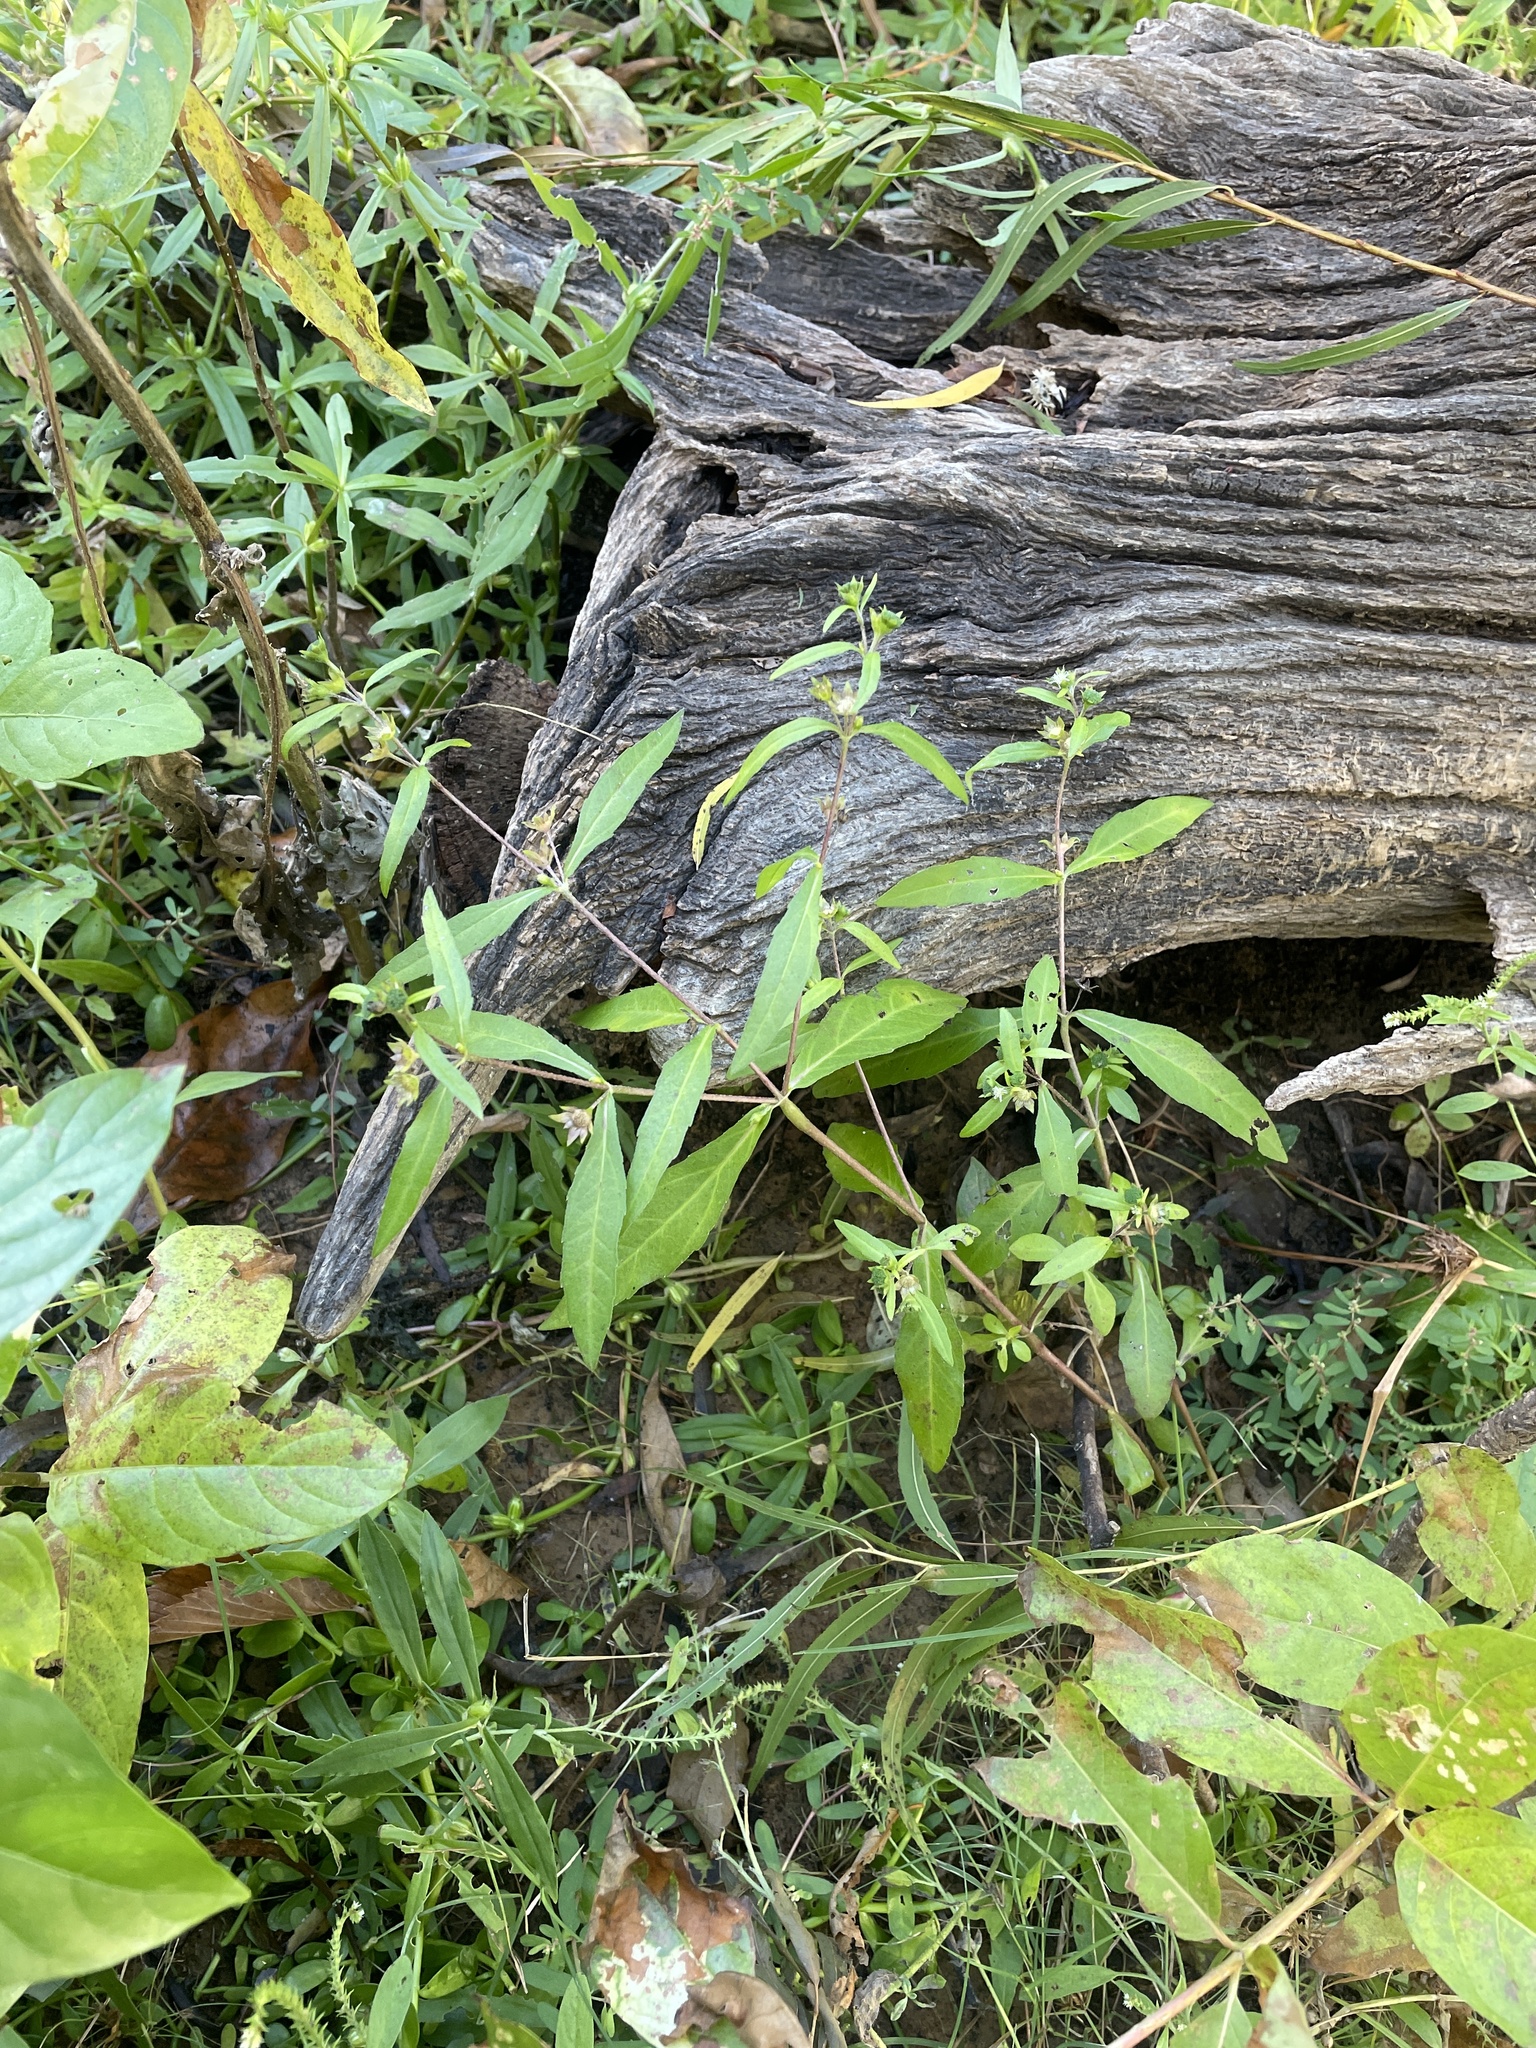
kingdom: Plantae
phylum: Tracheophyta
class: Magnoliopsida
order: Asterales
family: Asteraceae
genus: Eclipta
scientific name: Eclipta prostrata
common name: False daisy
